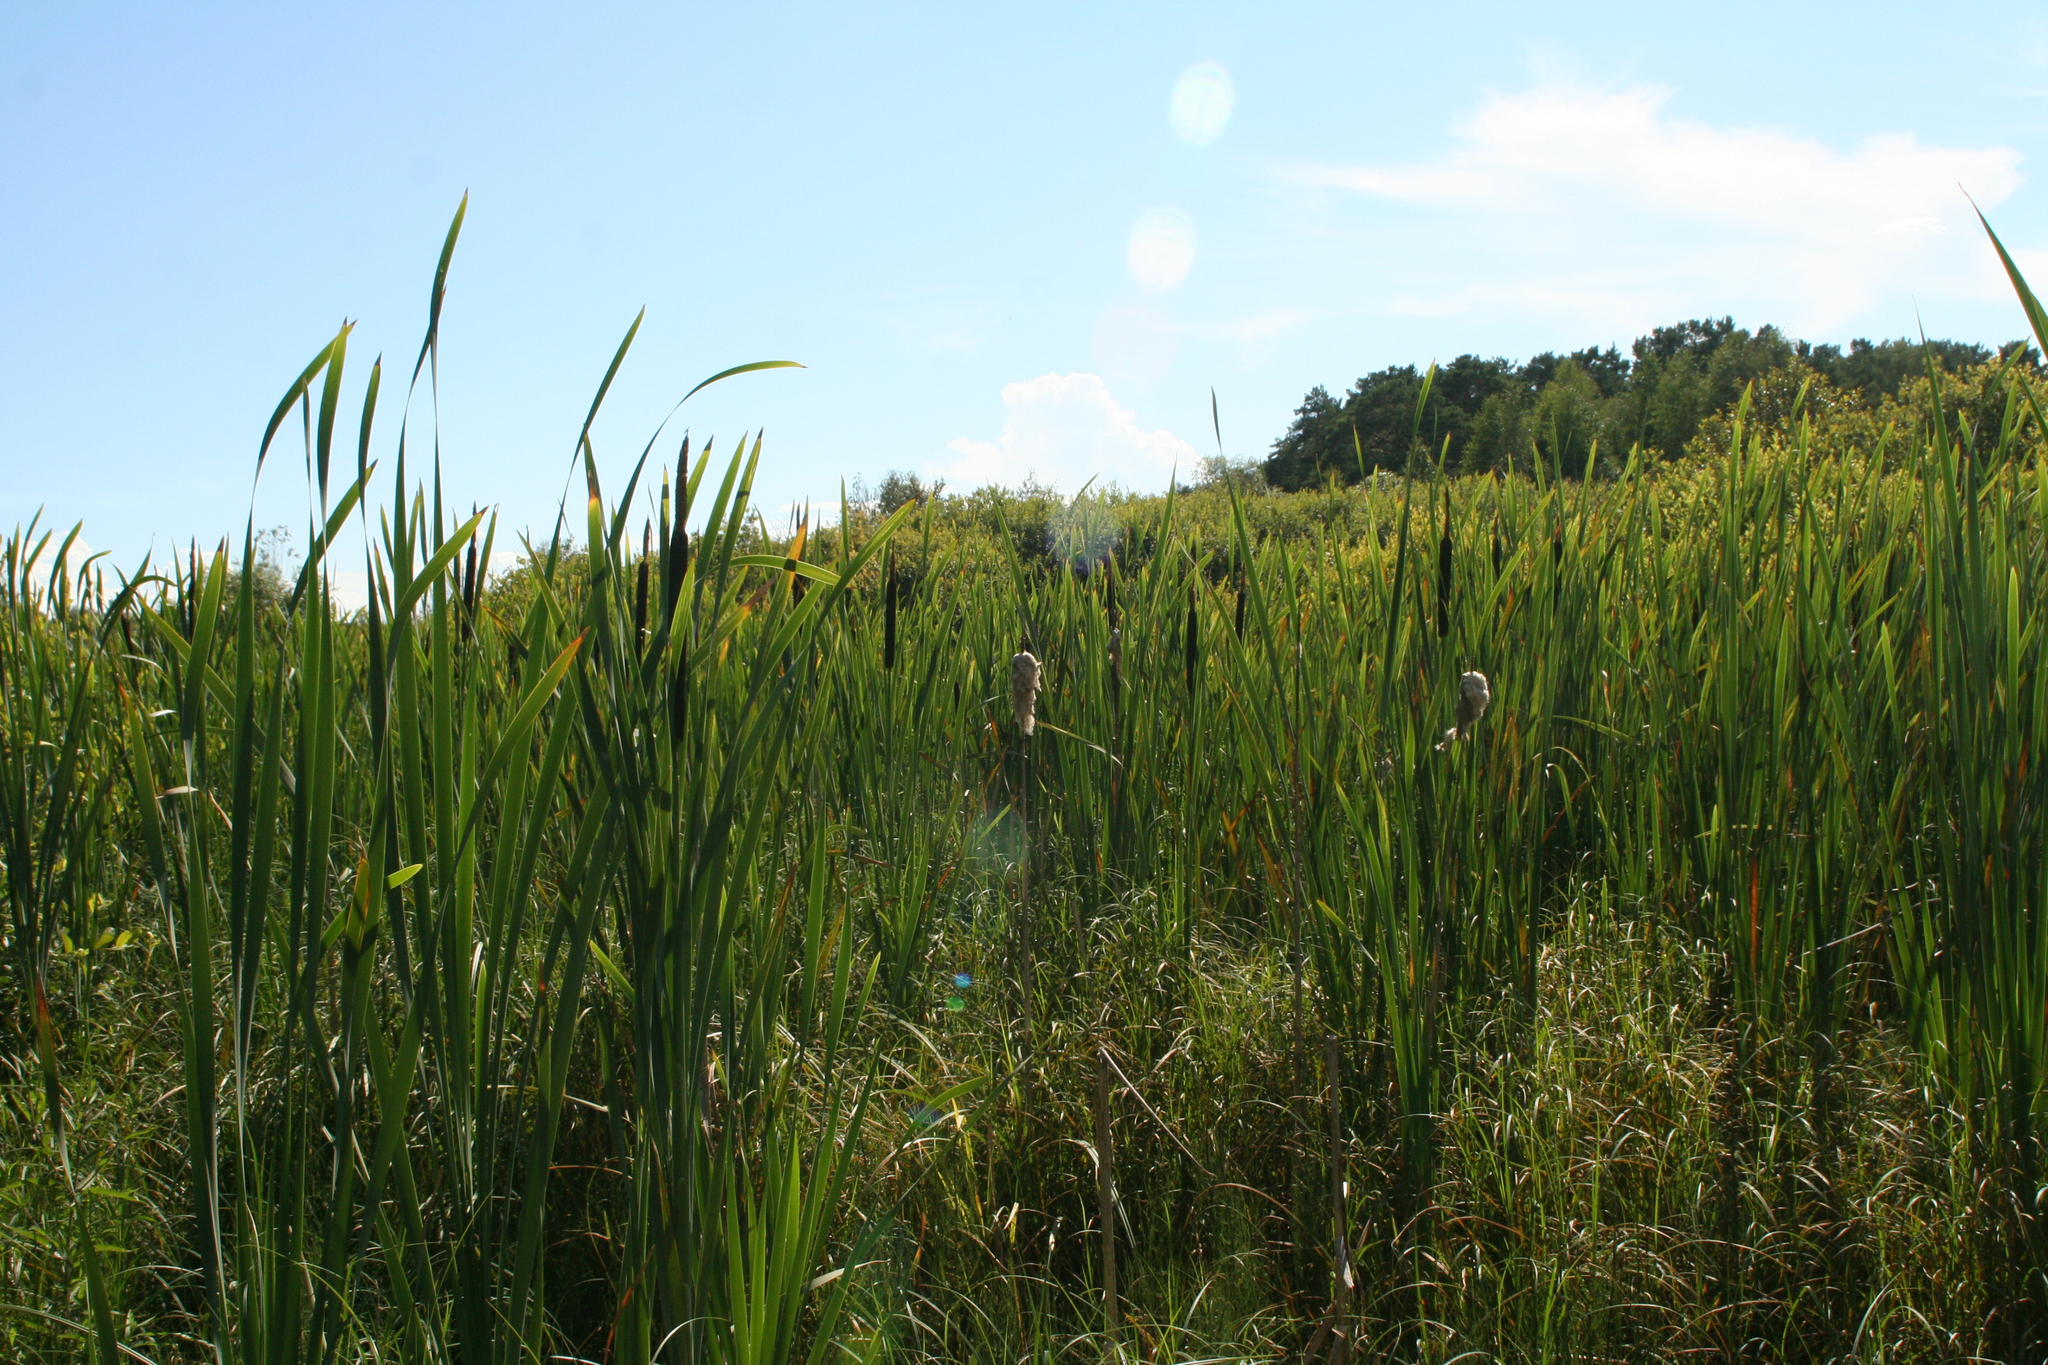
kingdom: Plantae
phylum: Tracheophyta
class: Liliopsida
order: Poales
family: Typhaceae
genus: Typha
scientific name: Typha latifolia
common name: Broadleaf cattail
